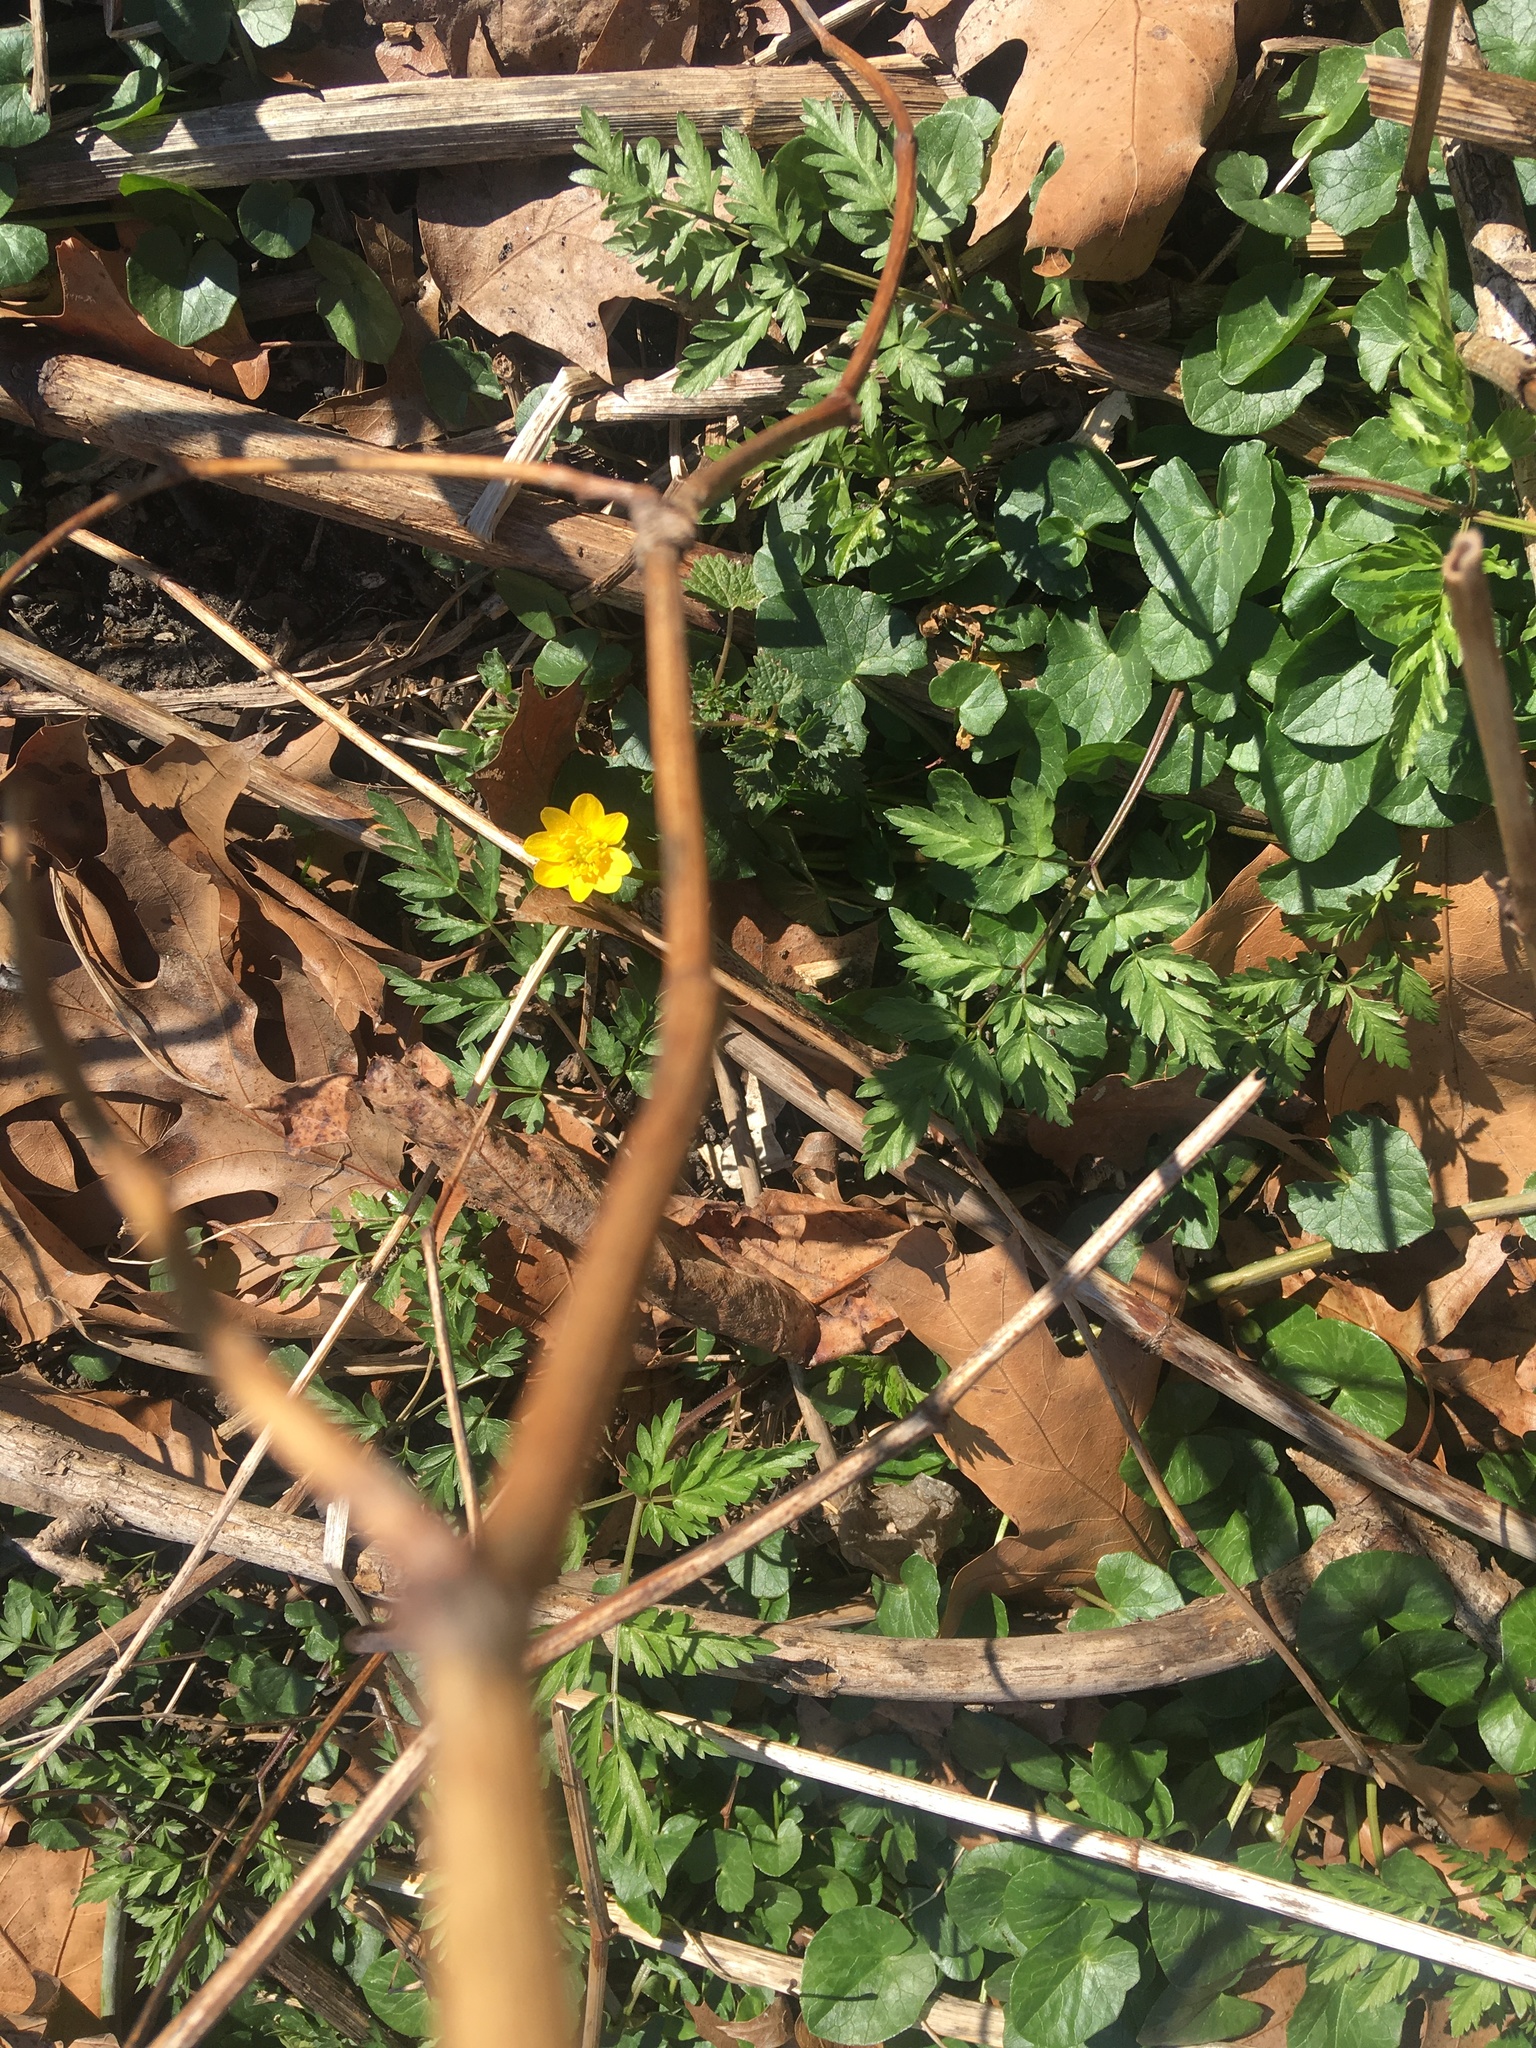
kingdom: Plantae
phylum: Tracheophyta
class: Magnoliopsida
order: Ranunculales
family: Ranunculaceae
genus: Ficaria
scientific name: Ficaria verna
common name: Lesser celandine
